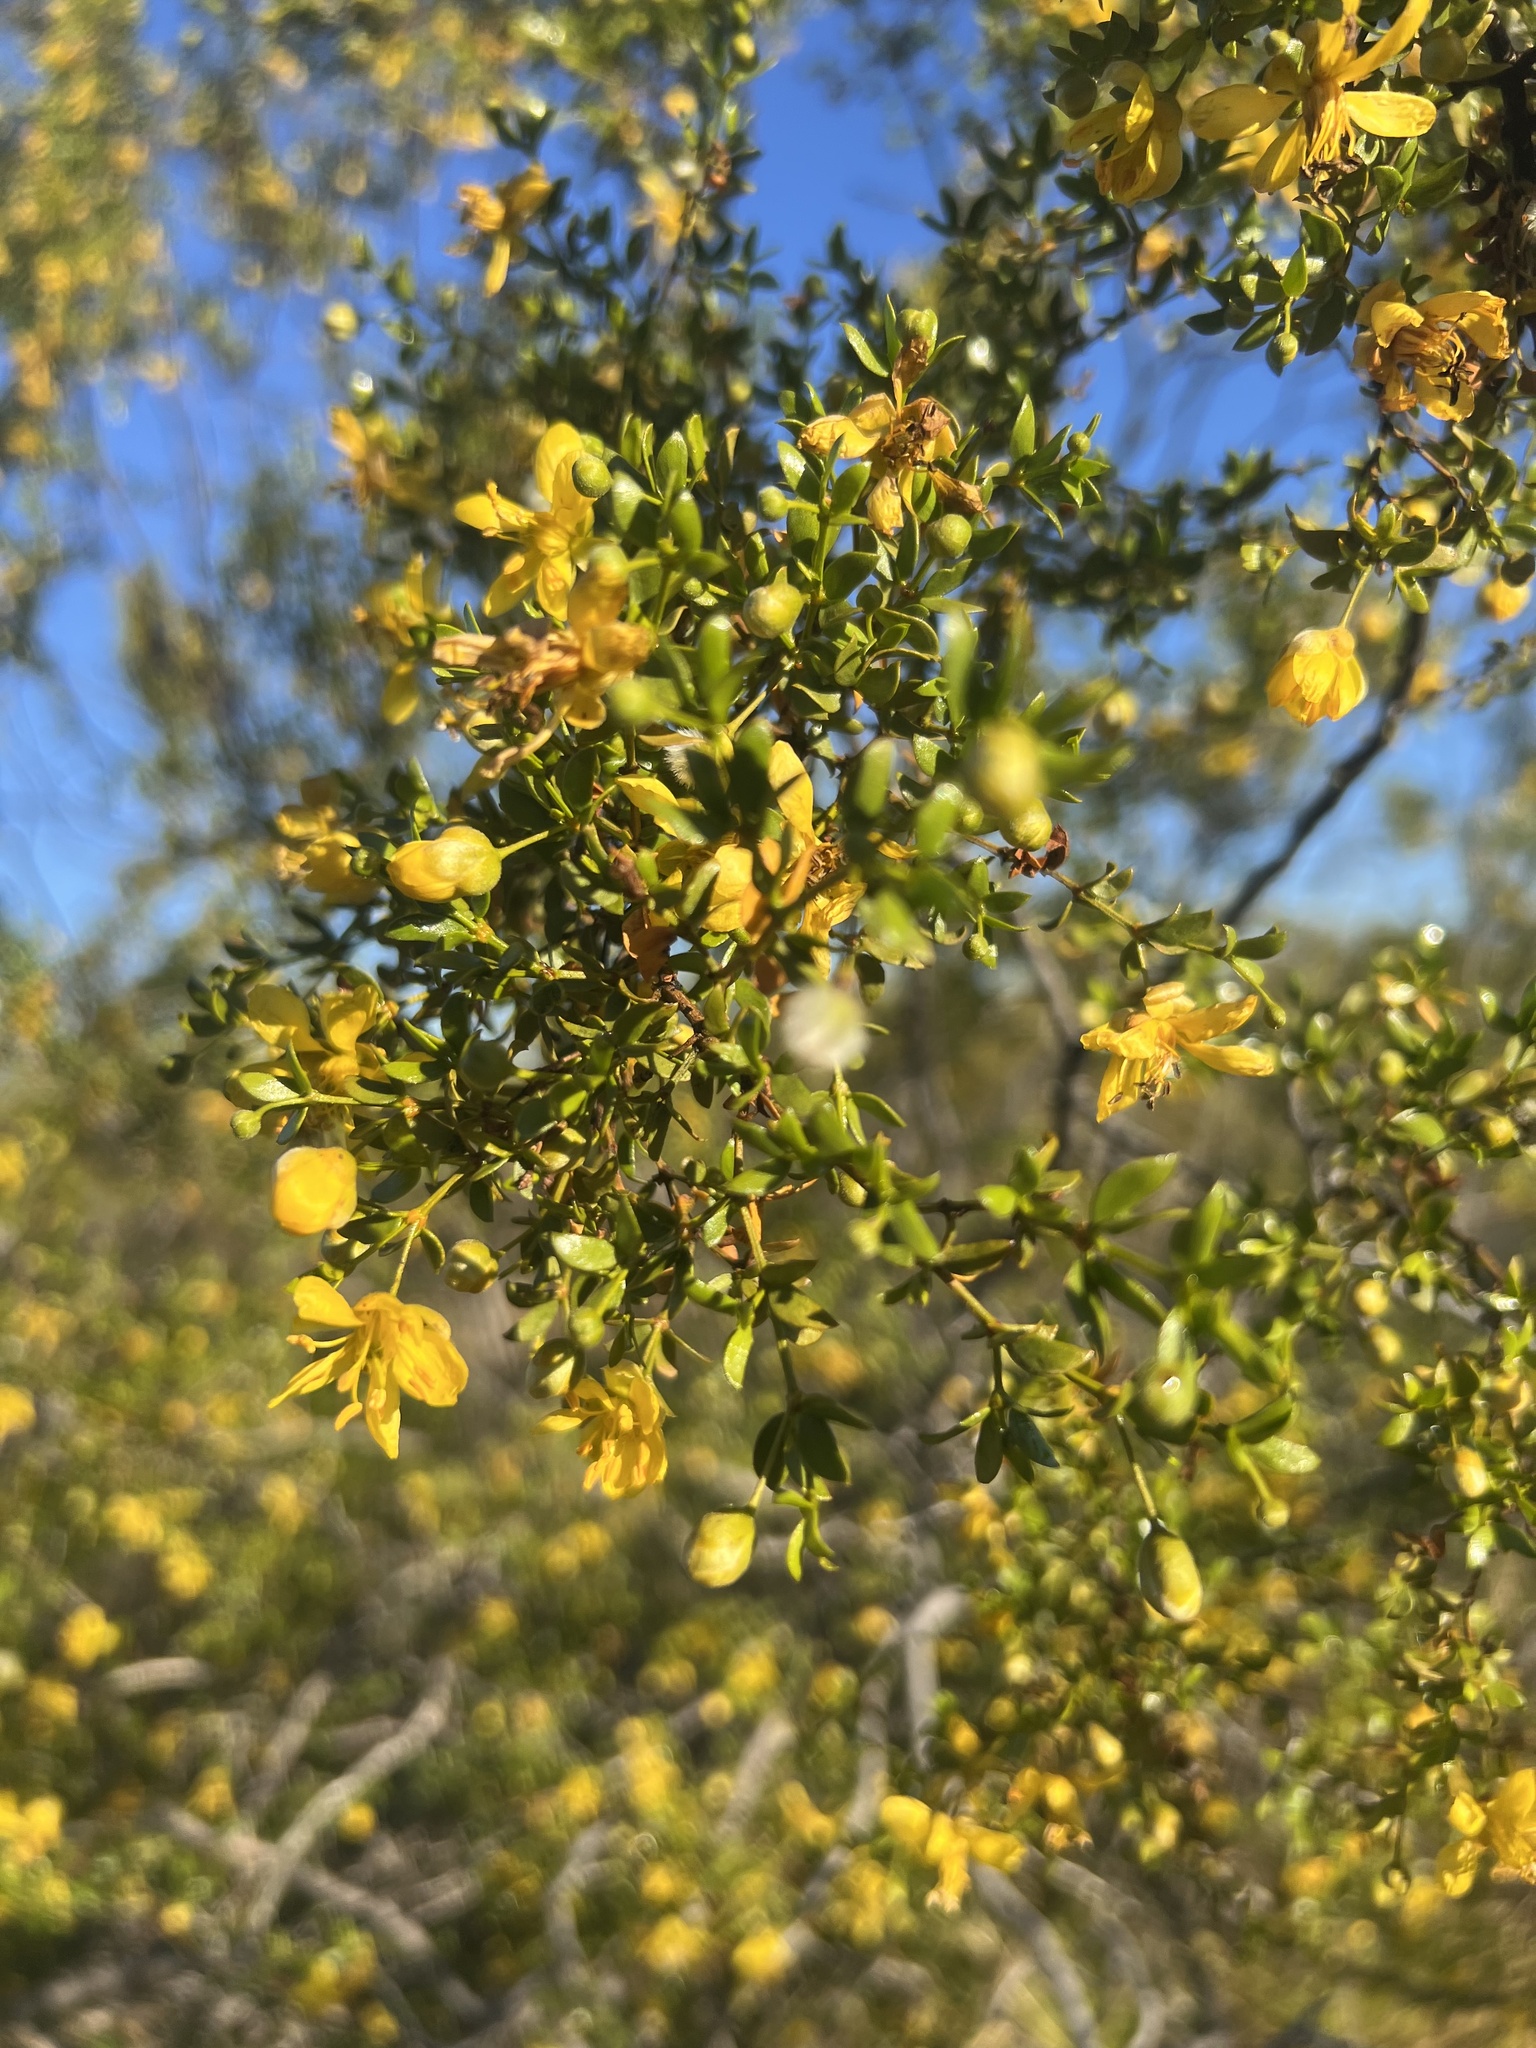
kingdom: Plantae
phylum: Tracheophyta
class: Magnoliopsida
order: Zygophyllales
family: Zygophyllaceae
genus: Larrea
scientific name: Larrea tridentata
